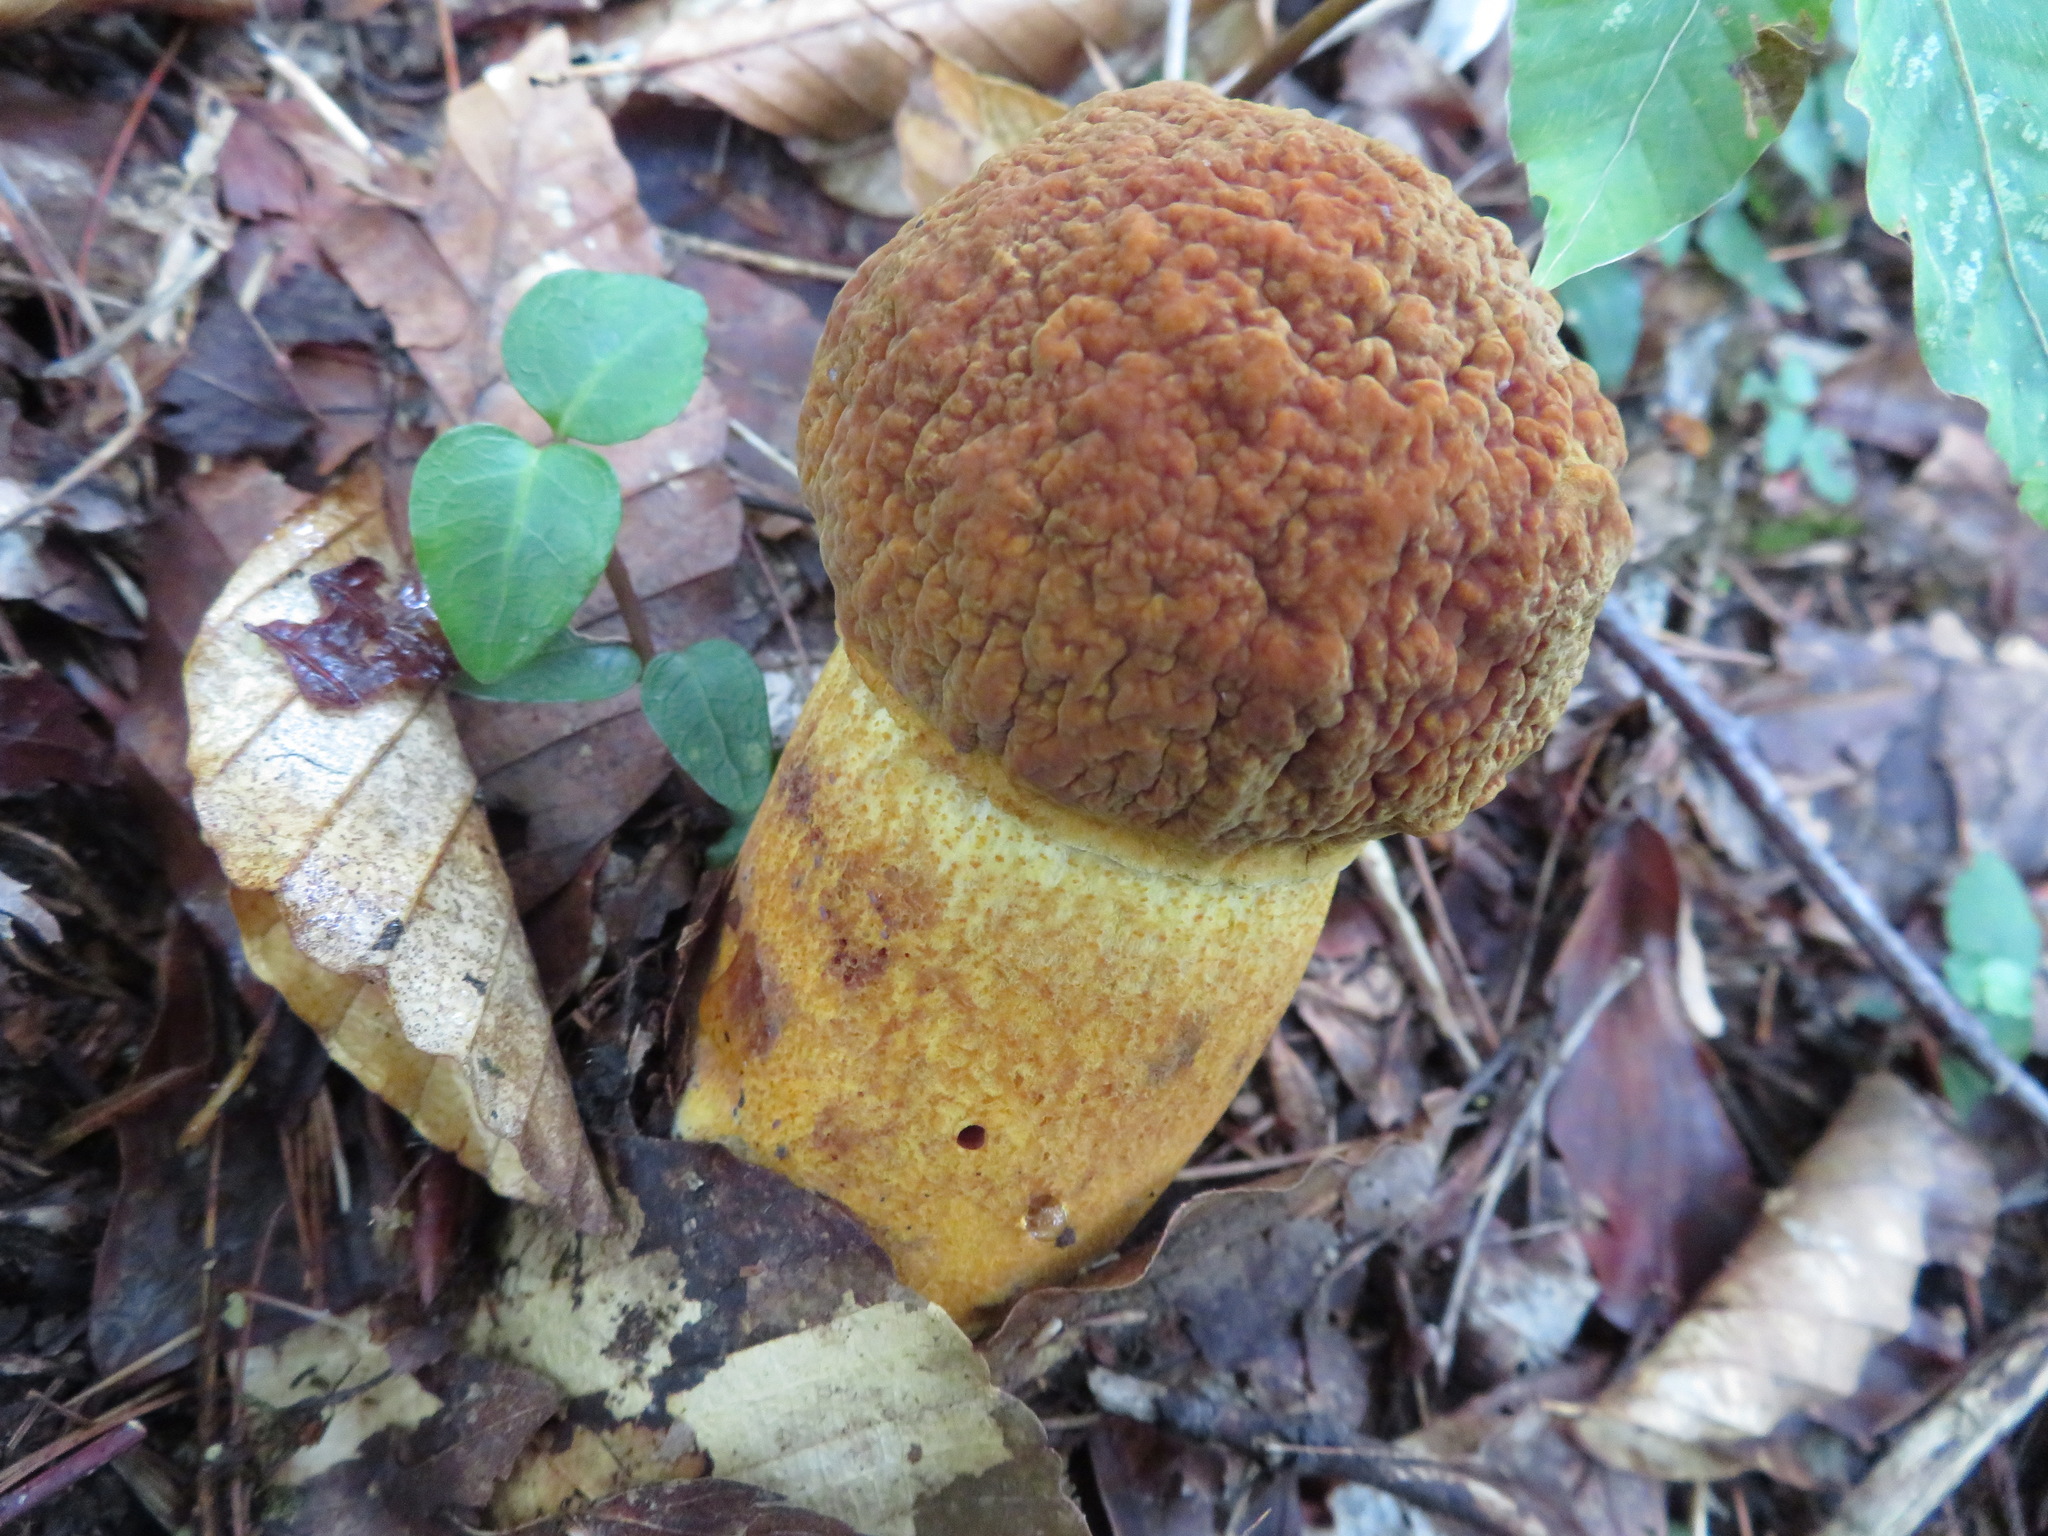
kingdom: Fungi
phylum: Basidiomycota
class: Agaricomycetes
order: Boletales
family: Boletaceae
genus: Rugiboletus
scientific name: Rugiboletus extremiorientalis
